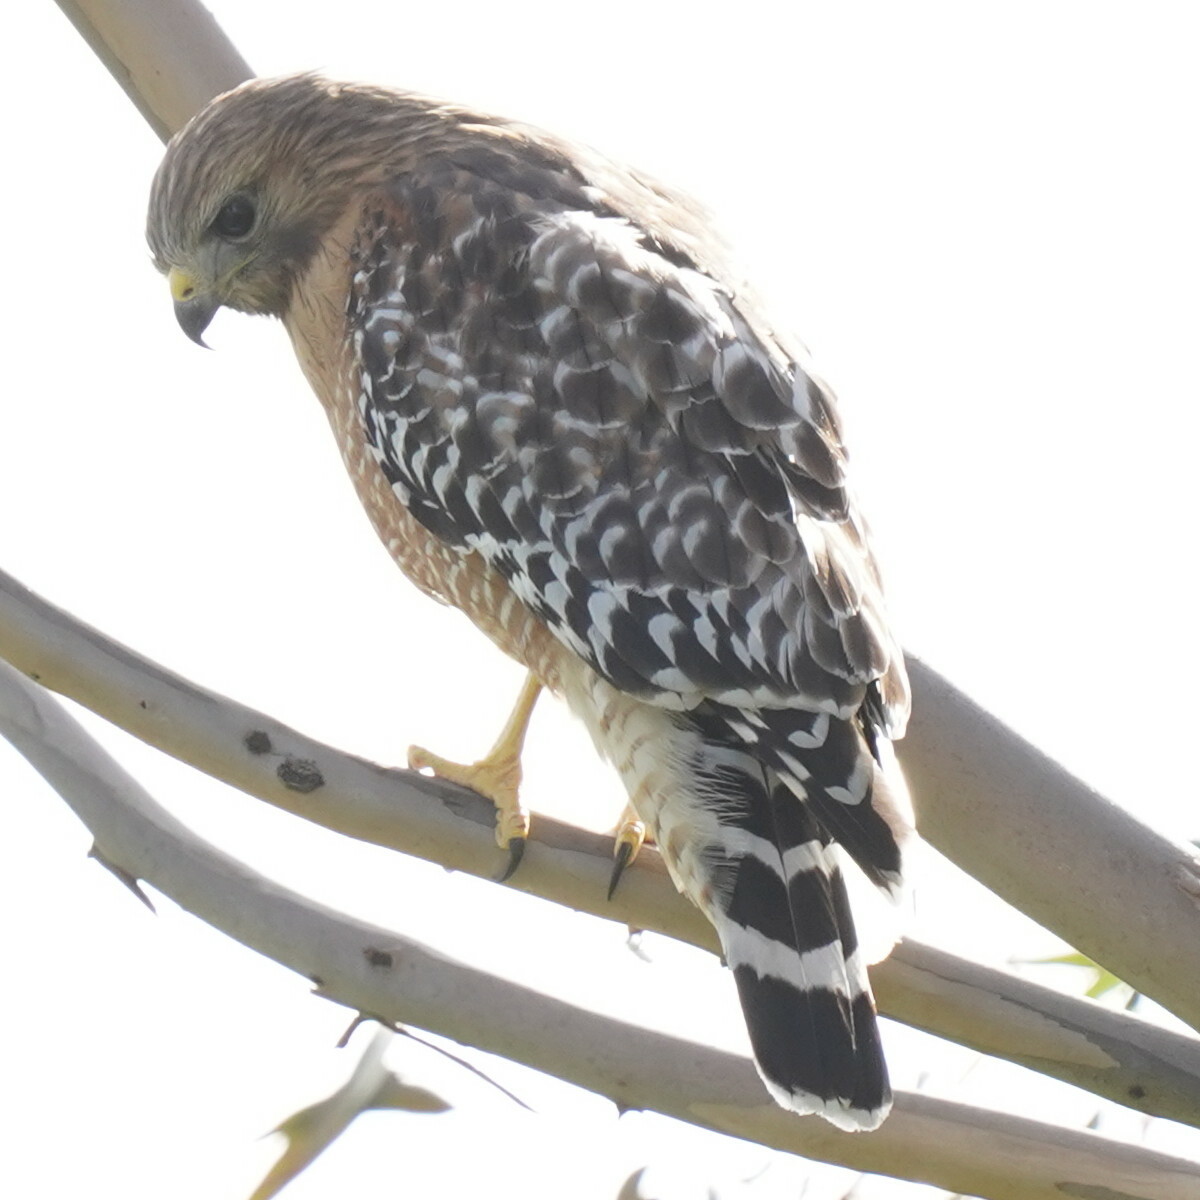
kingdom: Animalia
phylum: Chordata
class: Aves
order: Accipitriformes
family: Accipitridae
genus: Buteo
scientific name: Buteo lineatus
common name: Red-shouldered hawk
